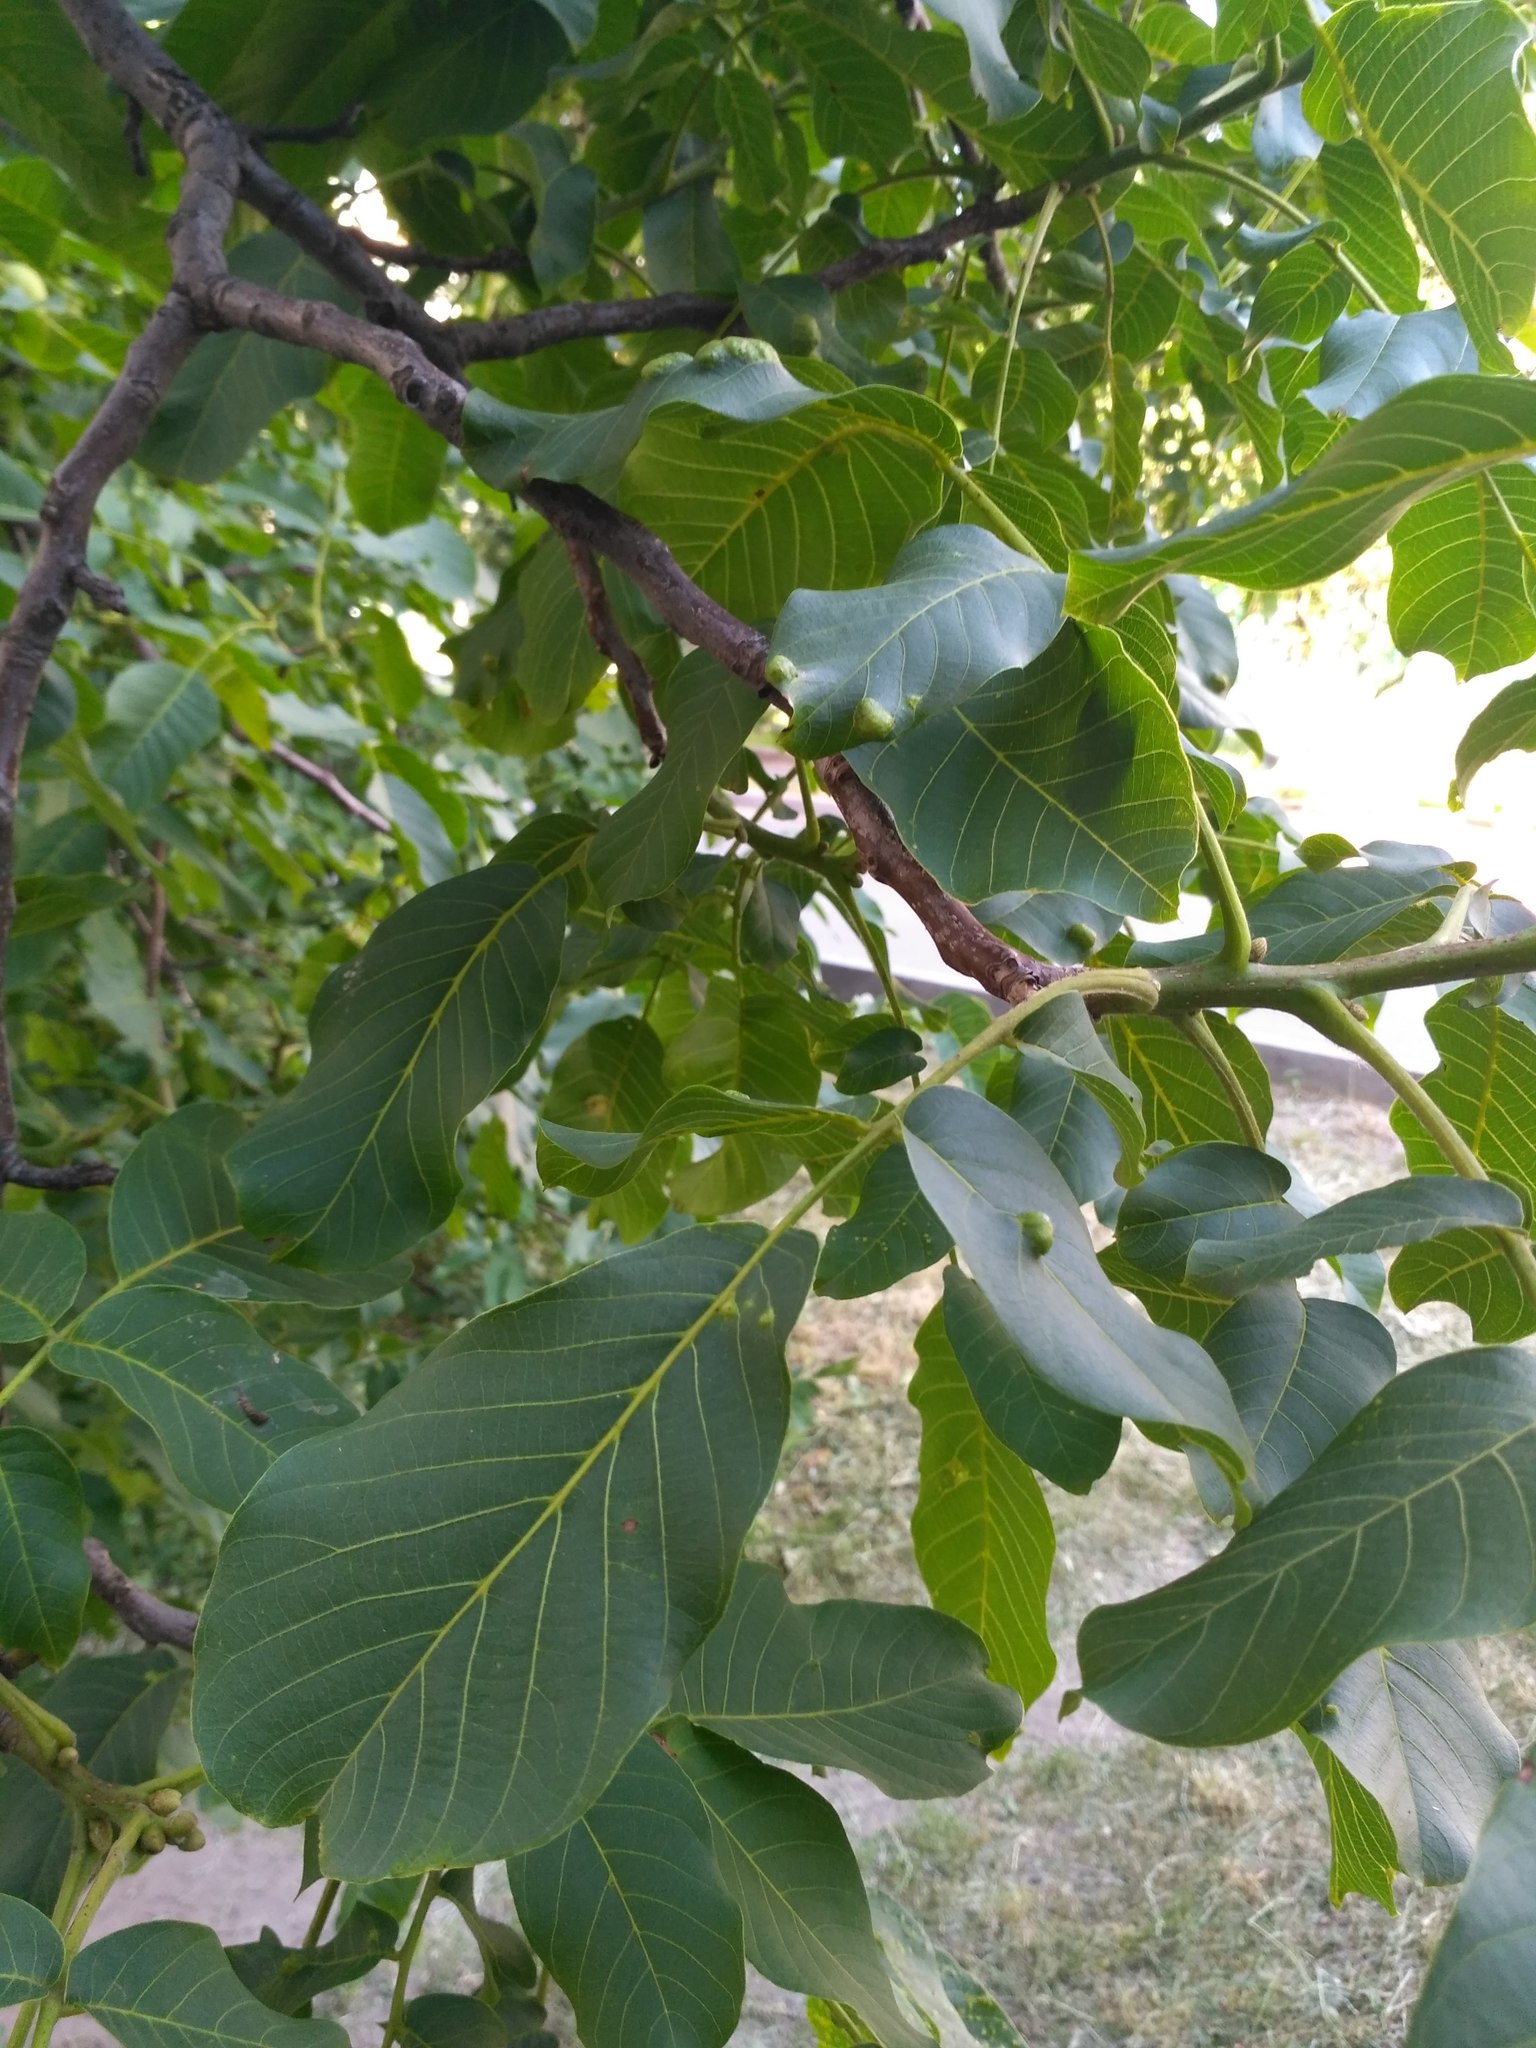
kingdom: Animalia
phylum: Arthropoda
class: Arachnida
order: Trombidiformes
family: Eriophyidae
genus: Aceria
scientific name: Aceria erinea
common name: Persian walnut erineum mite
